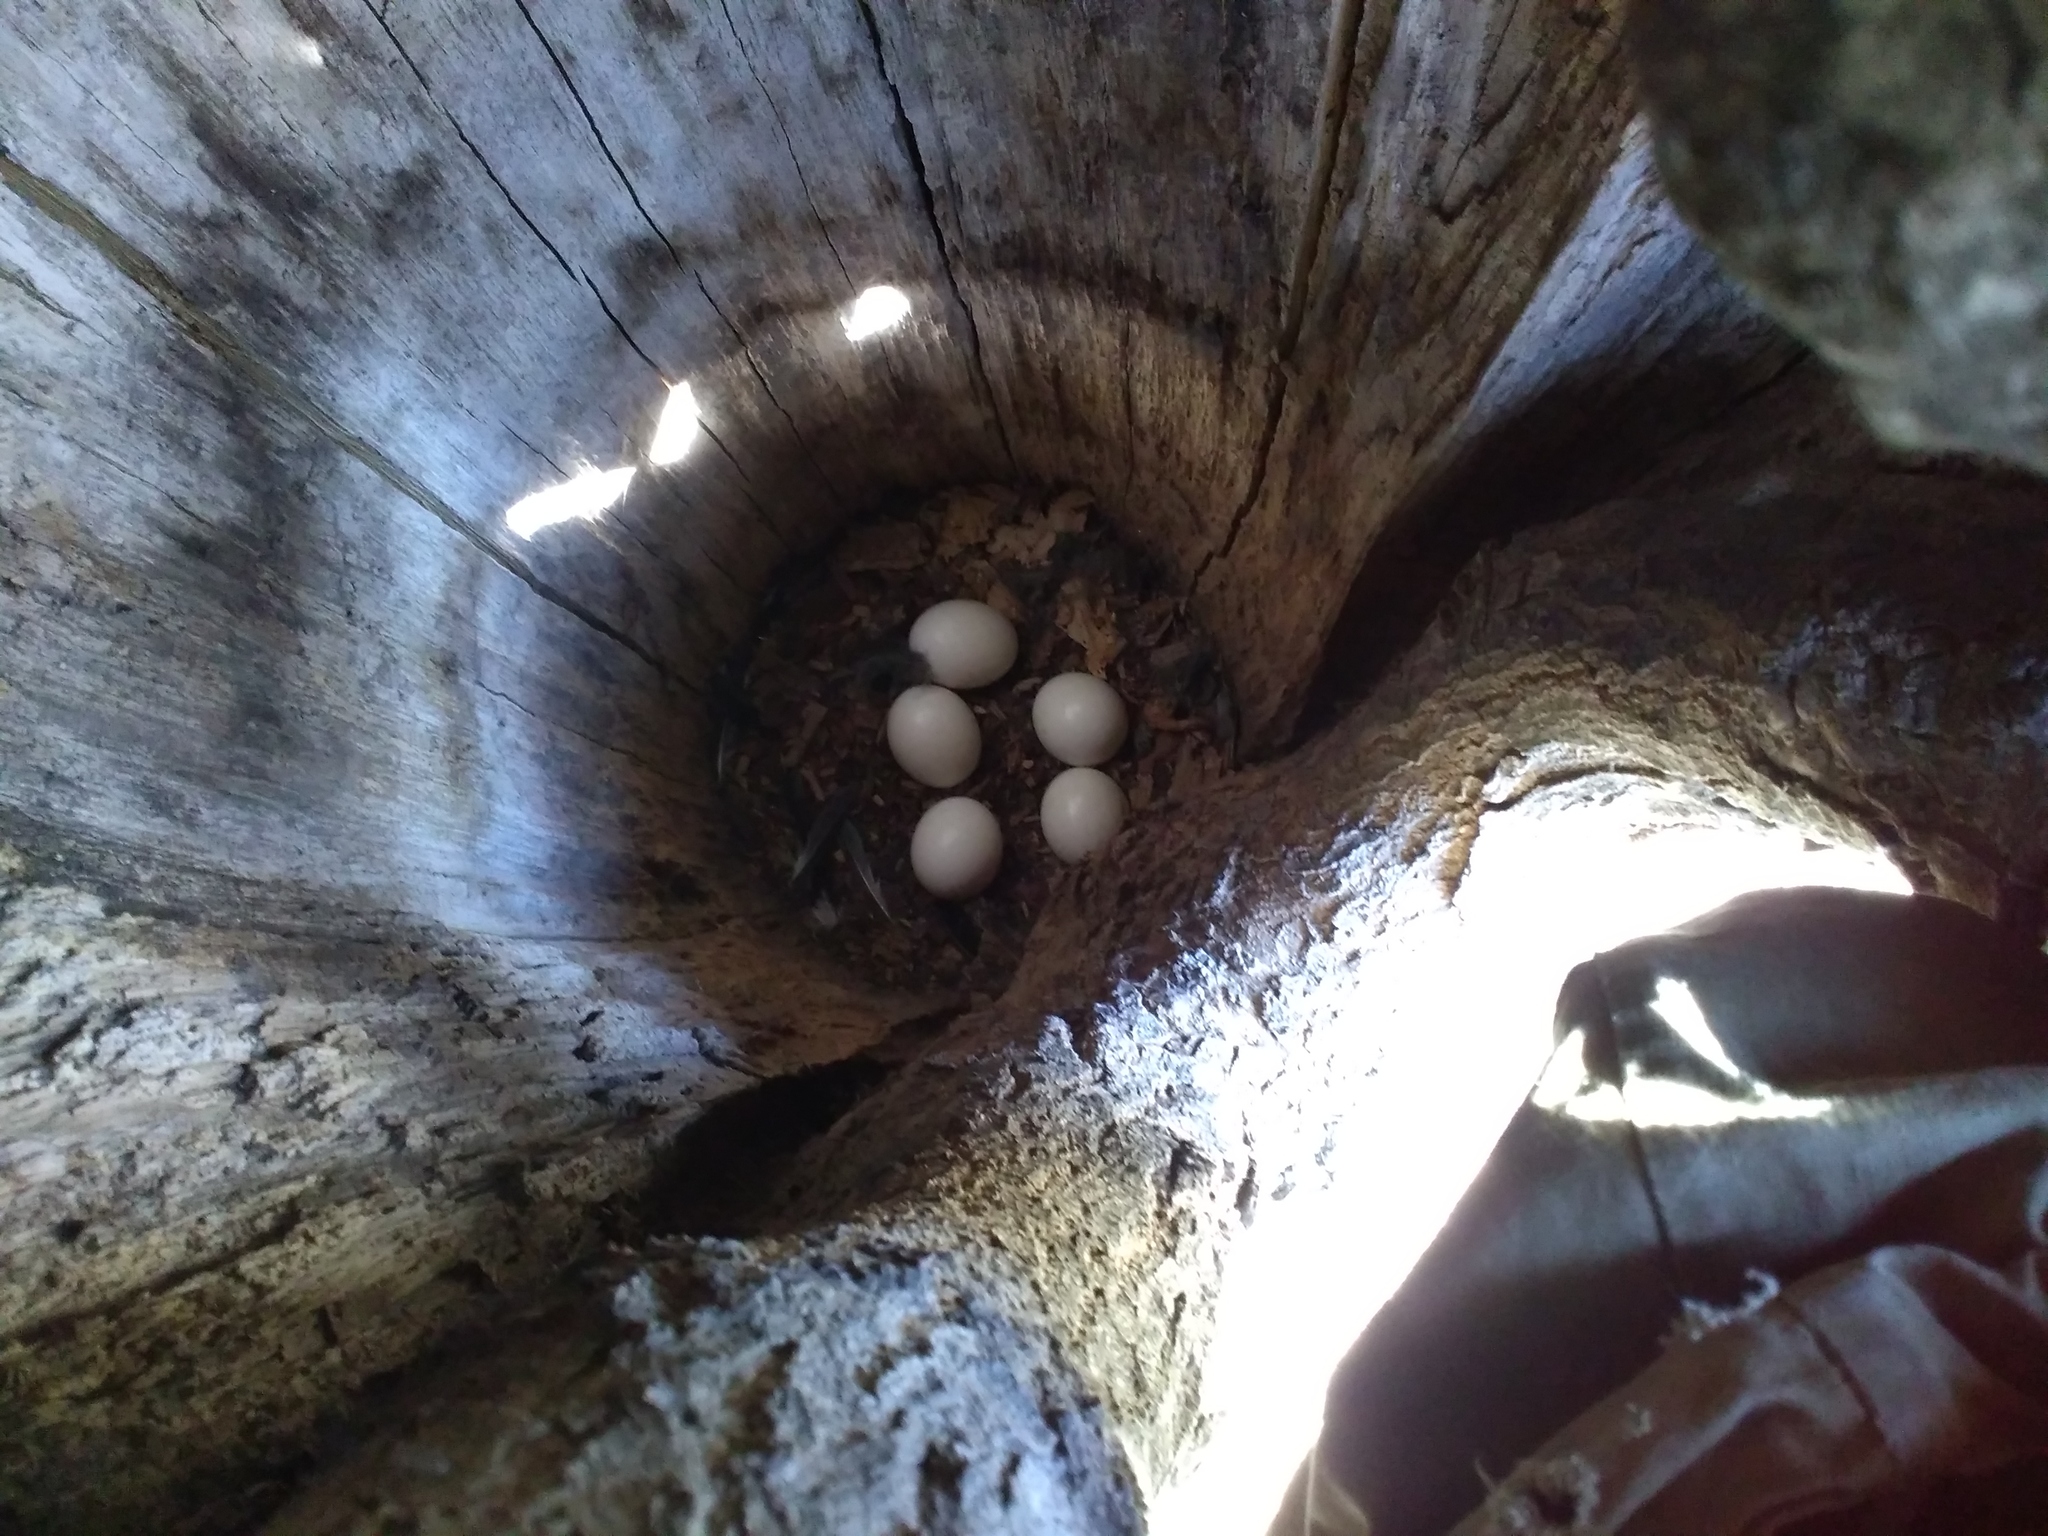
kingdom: Animalia
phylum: Chordata
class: Aves
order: Strigiformes
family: Strigidae
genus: Strix
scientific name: Strix aluco
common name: Tawny owl
